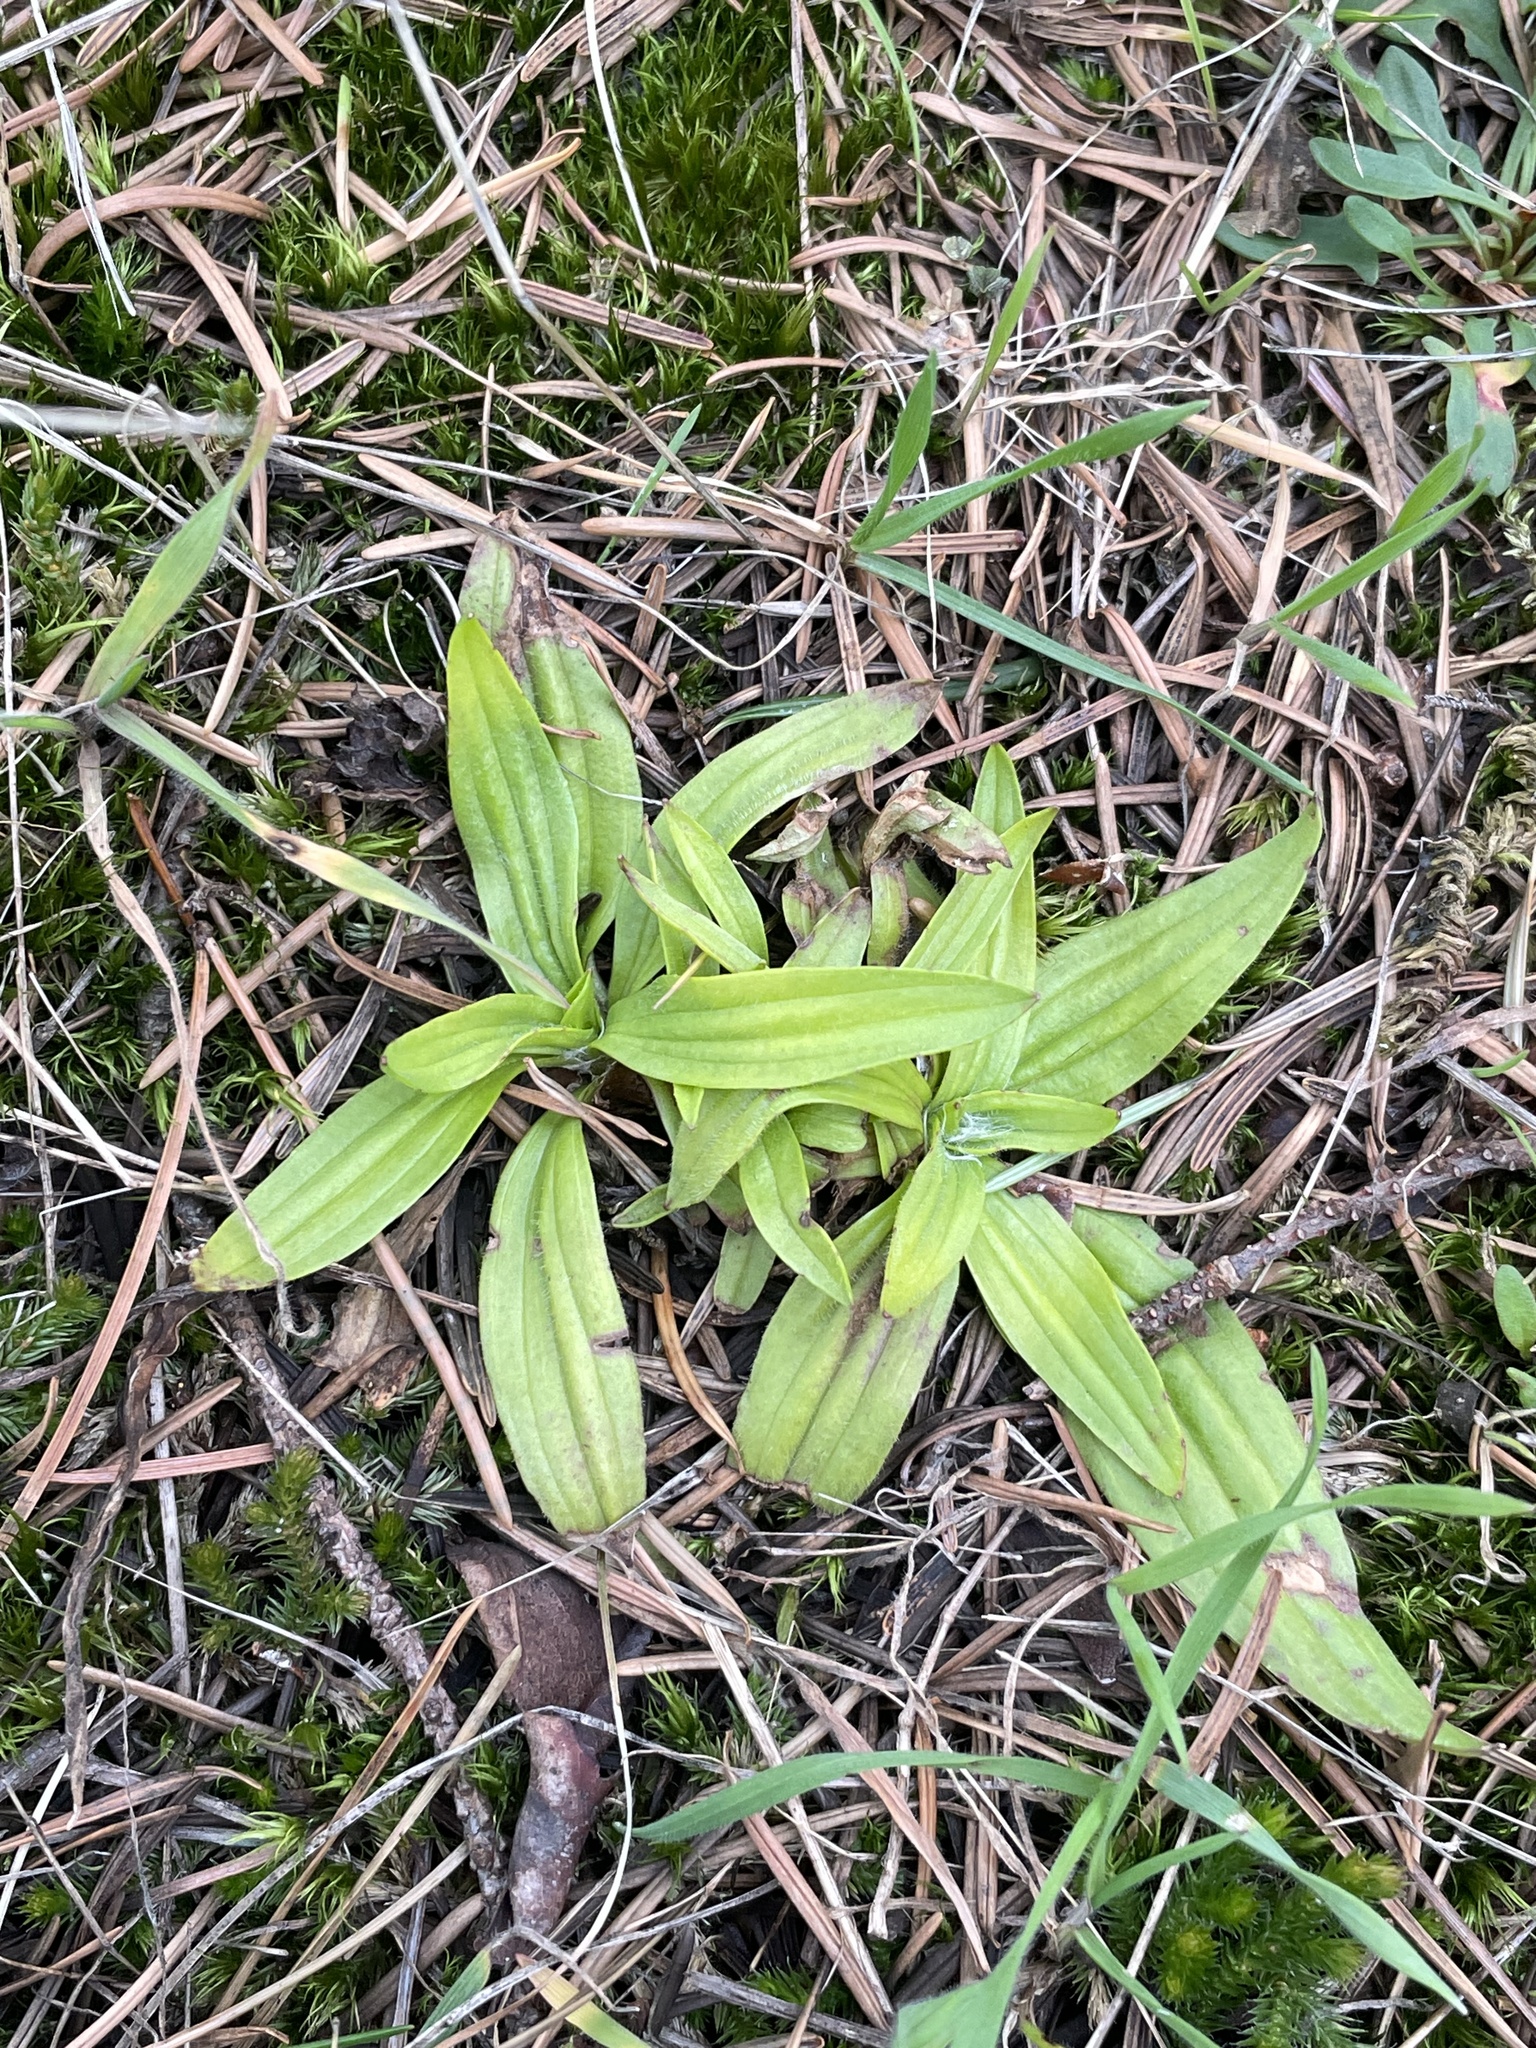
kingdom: Plantae
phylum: Tracheophyta
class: Magnoliopsida
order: Lamiales
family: Plantaginaceae
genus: Plantago
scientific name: Plantago lanceolata
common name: Ribwort plantain
